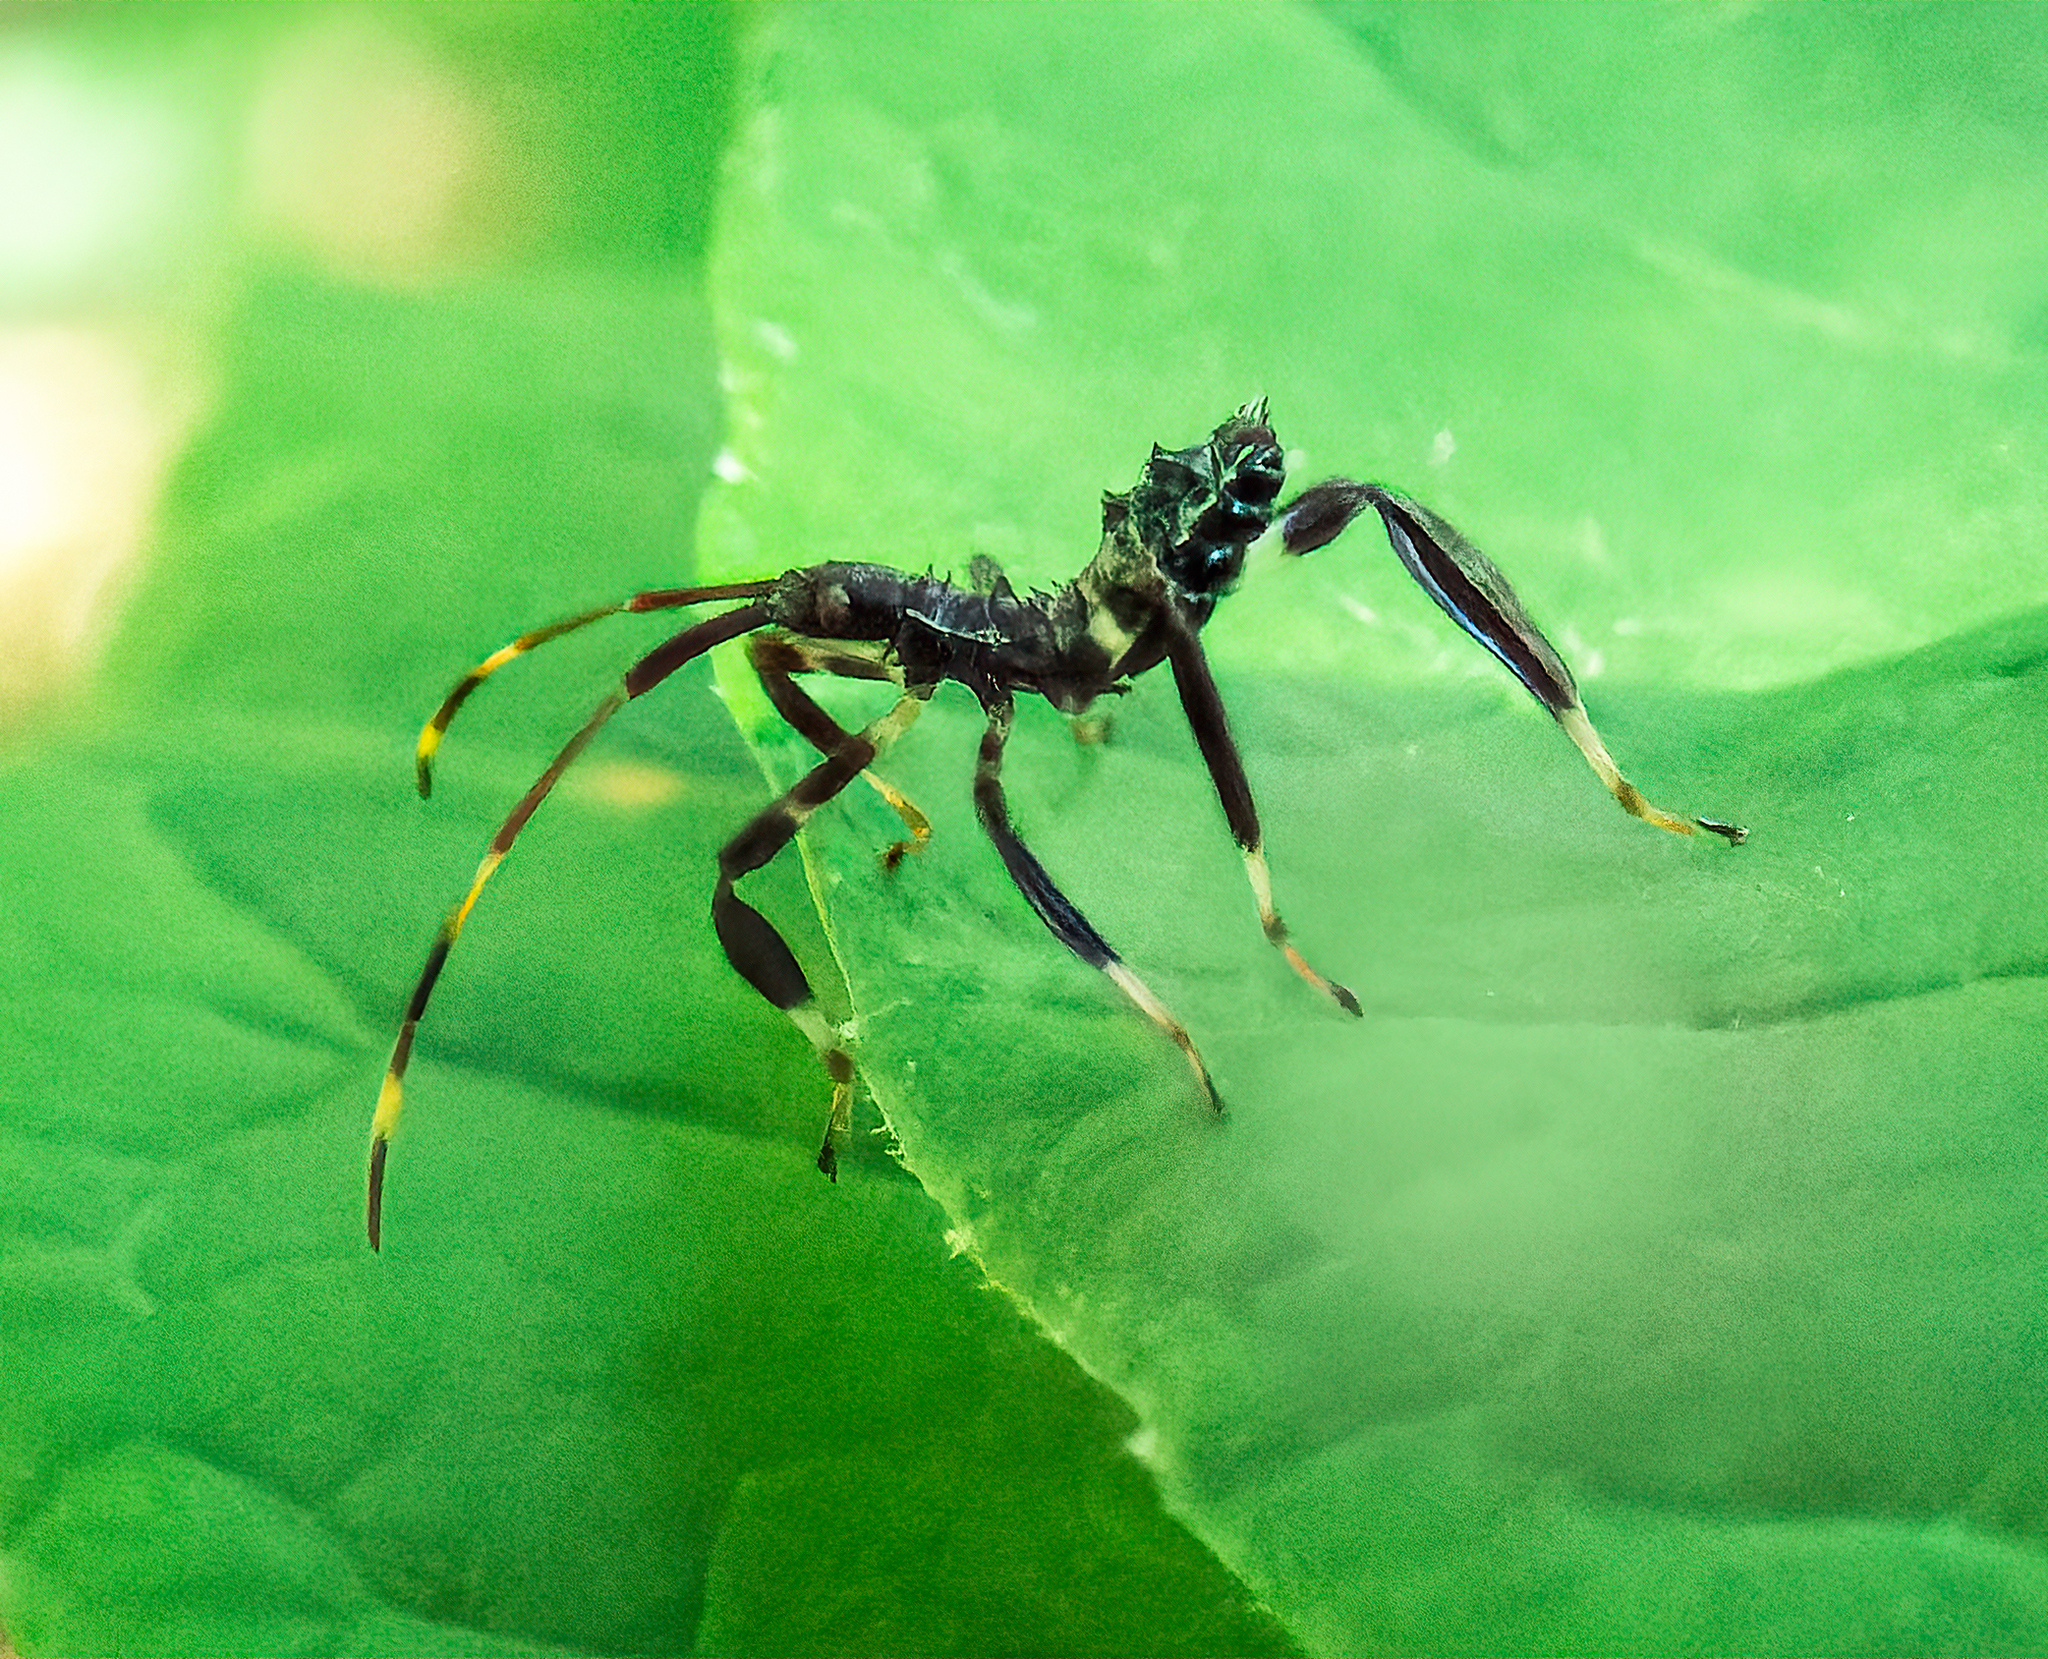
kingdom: Animalia
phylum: Arthropoda
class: Insecta
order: Hemiptera
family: Coreidae
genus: Acanthocephala
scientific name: Acanthocephala terminalis
